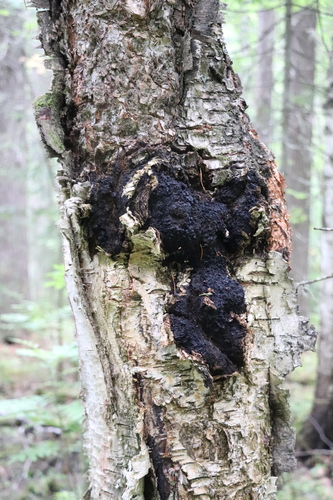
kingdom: Fungi
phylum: Basidiomycota
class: Agaricomycetes
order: Hymenochaetales
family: Hymenochaetaceae
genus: Inonotus
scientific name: Inonotus obliquus
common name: Chaga
